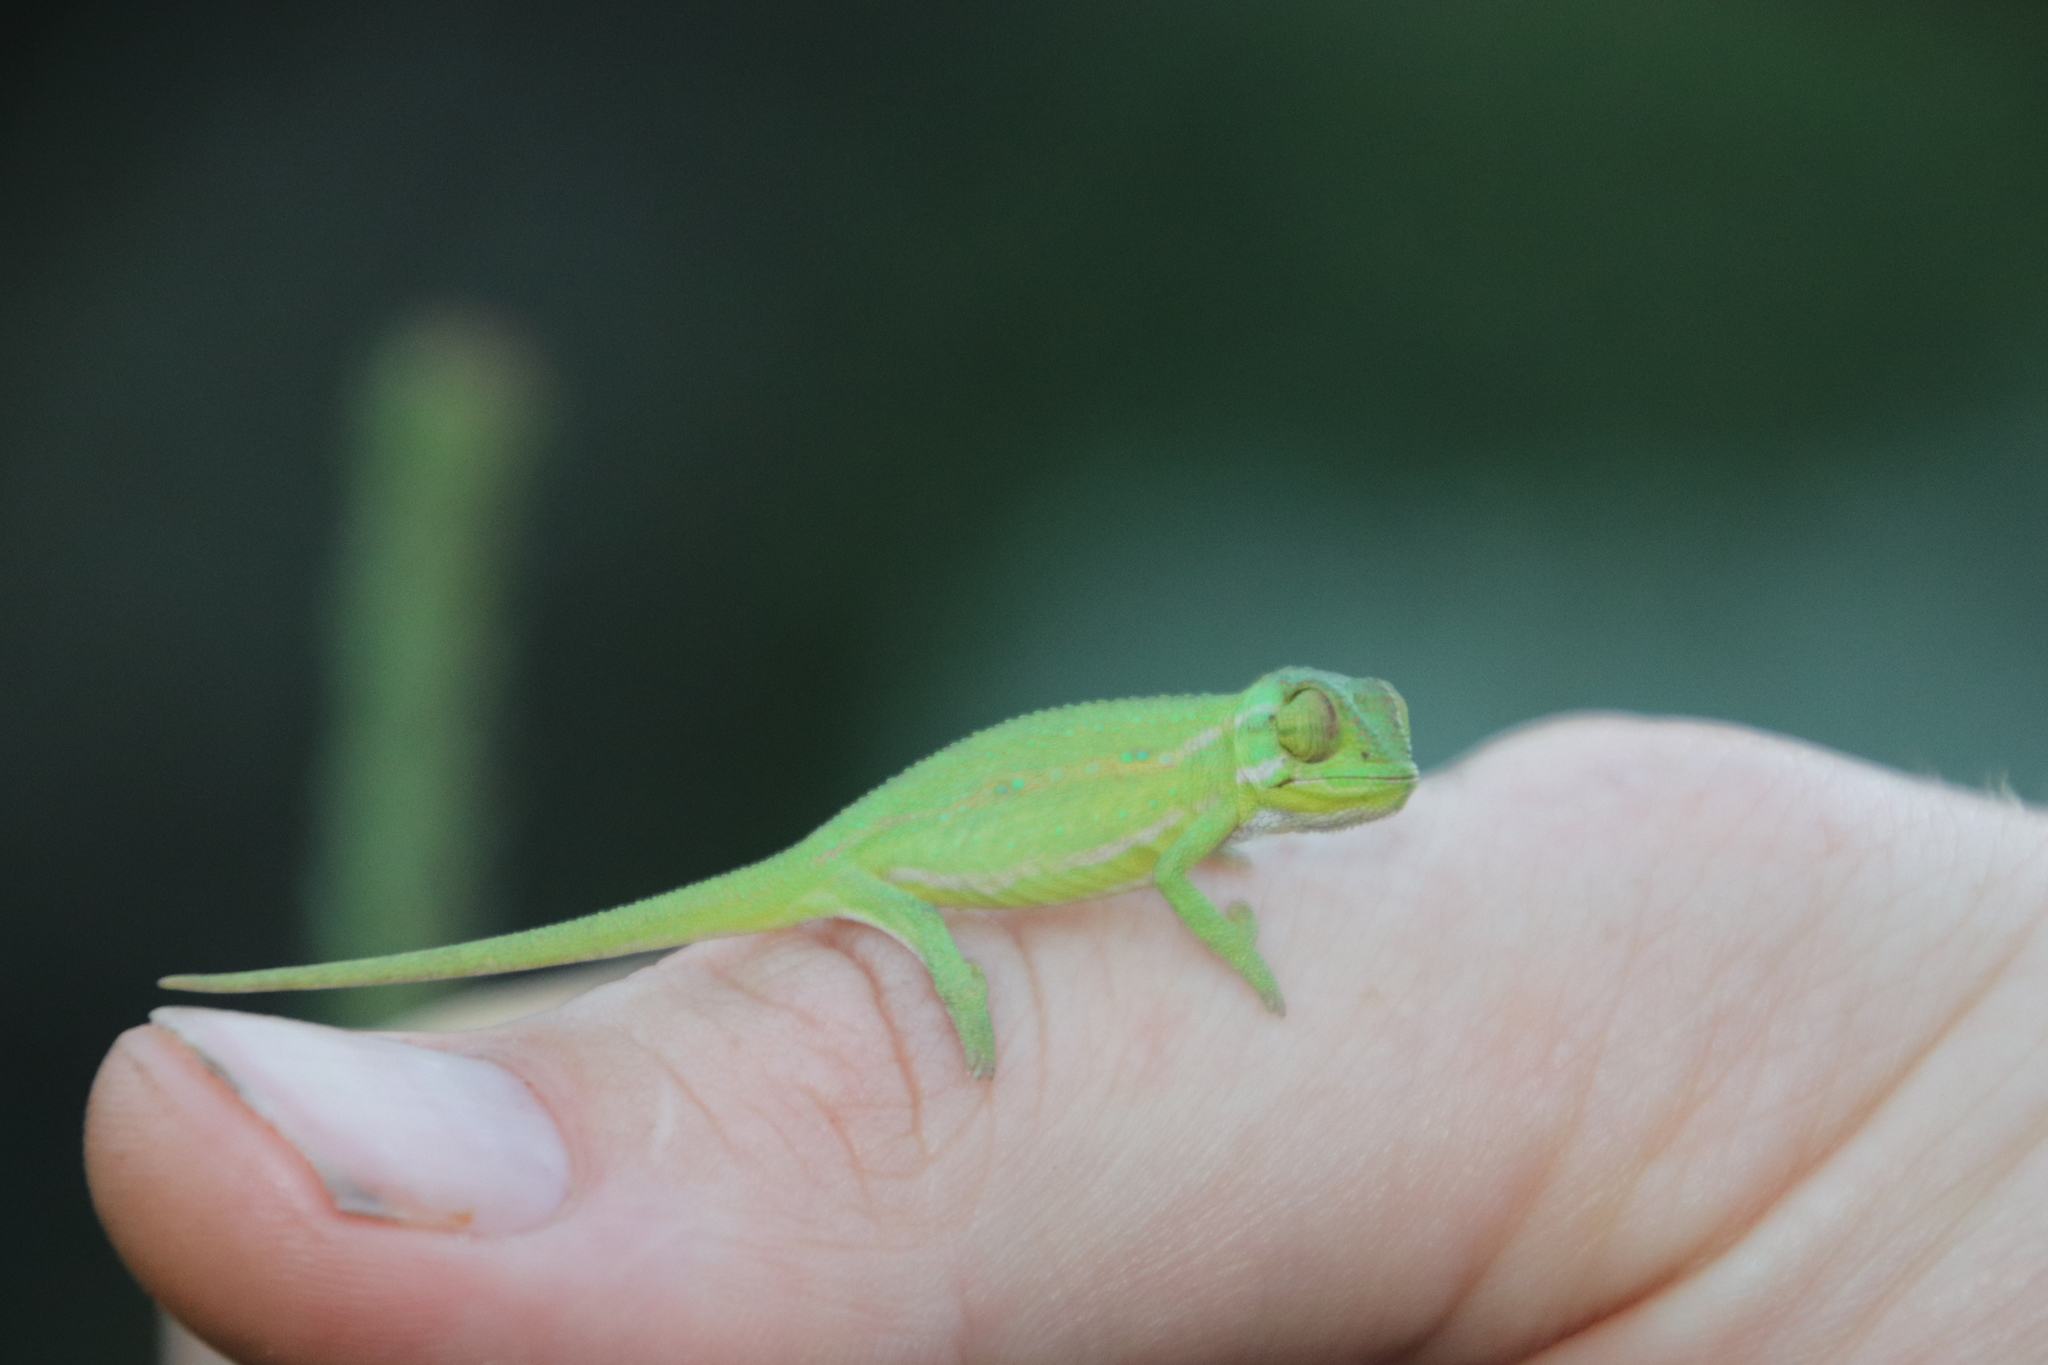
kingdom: Animalia
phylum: Chordata
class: Squamata
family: Chamaeleonidae
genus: Bradypodion
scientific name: Bradypodion pumilum
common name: Cape dwarf chameleon
